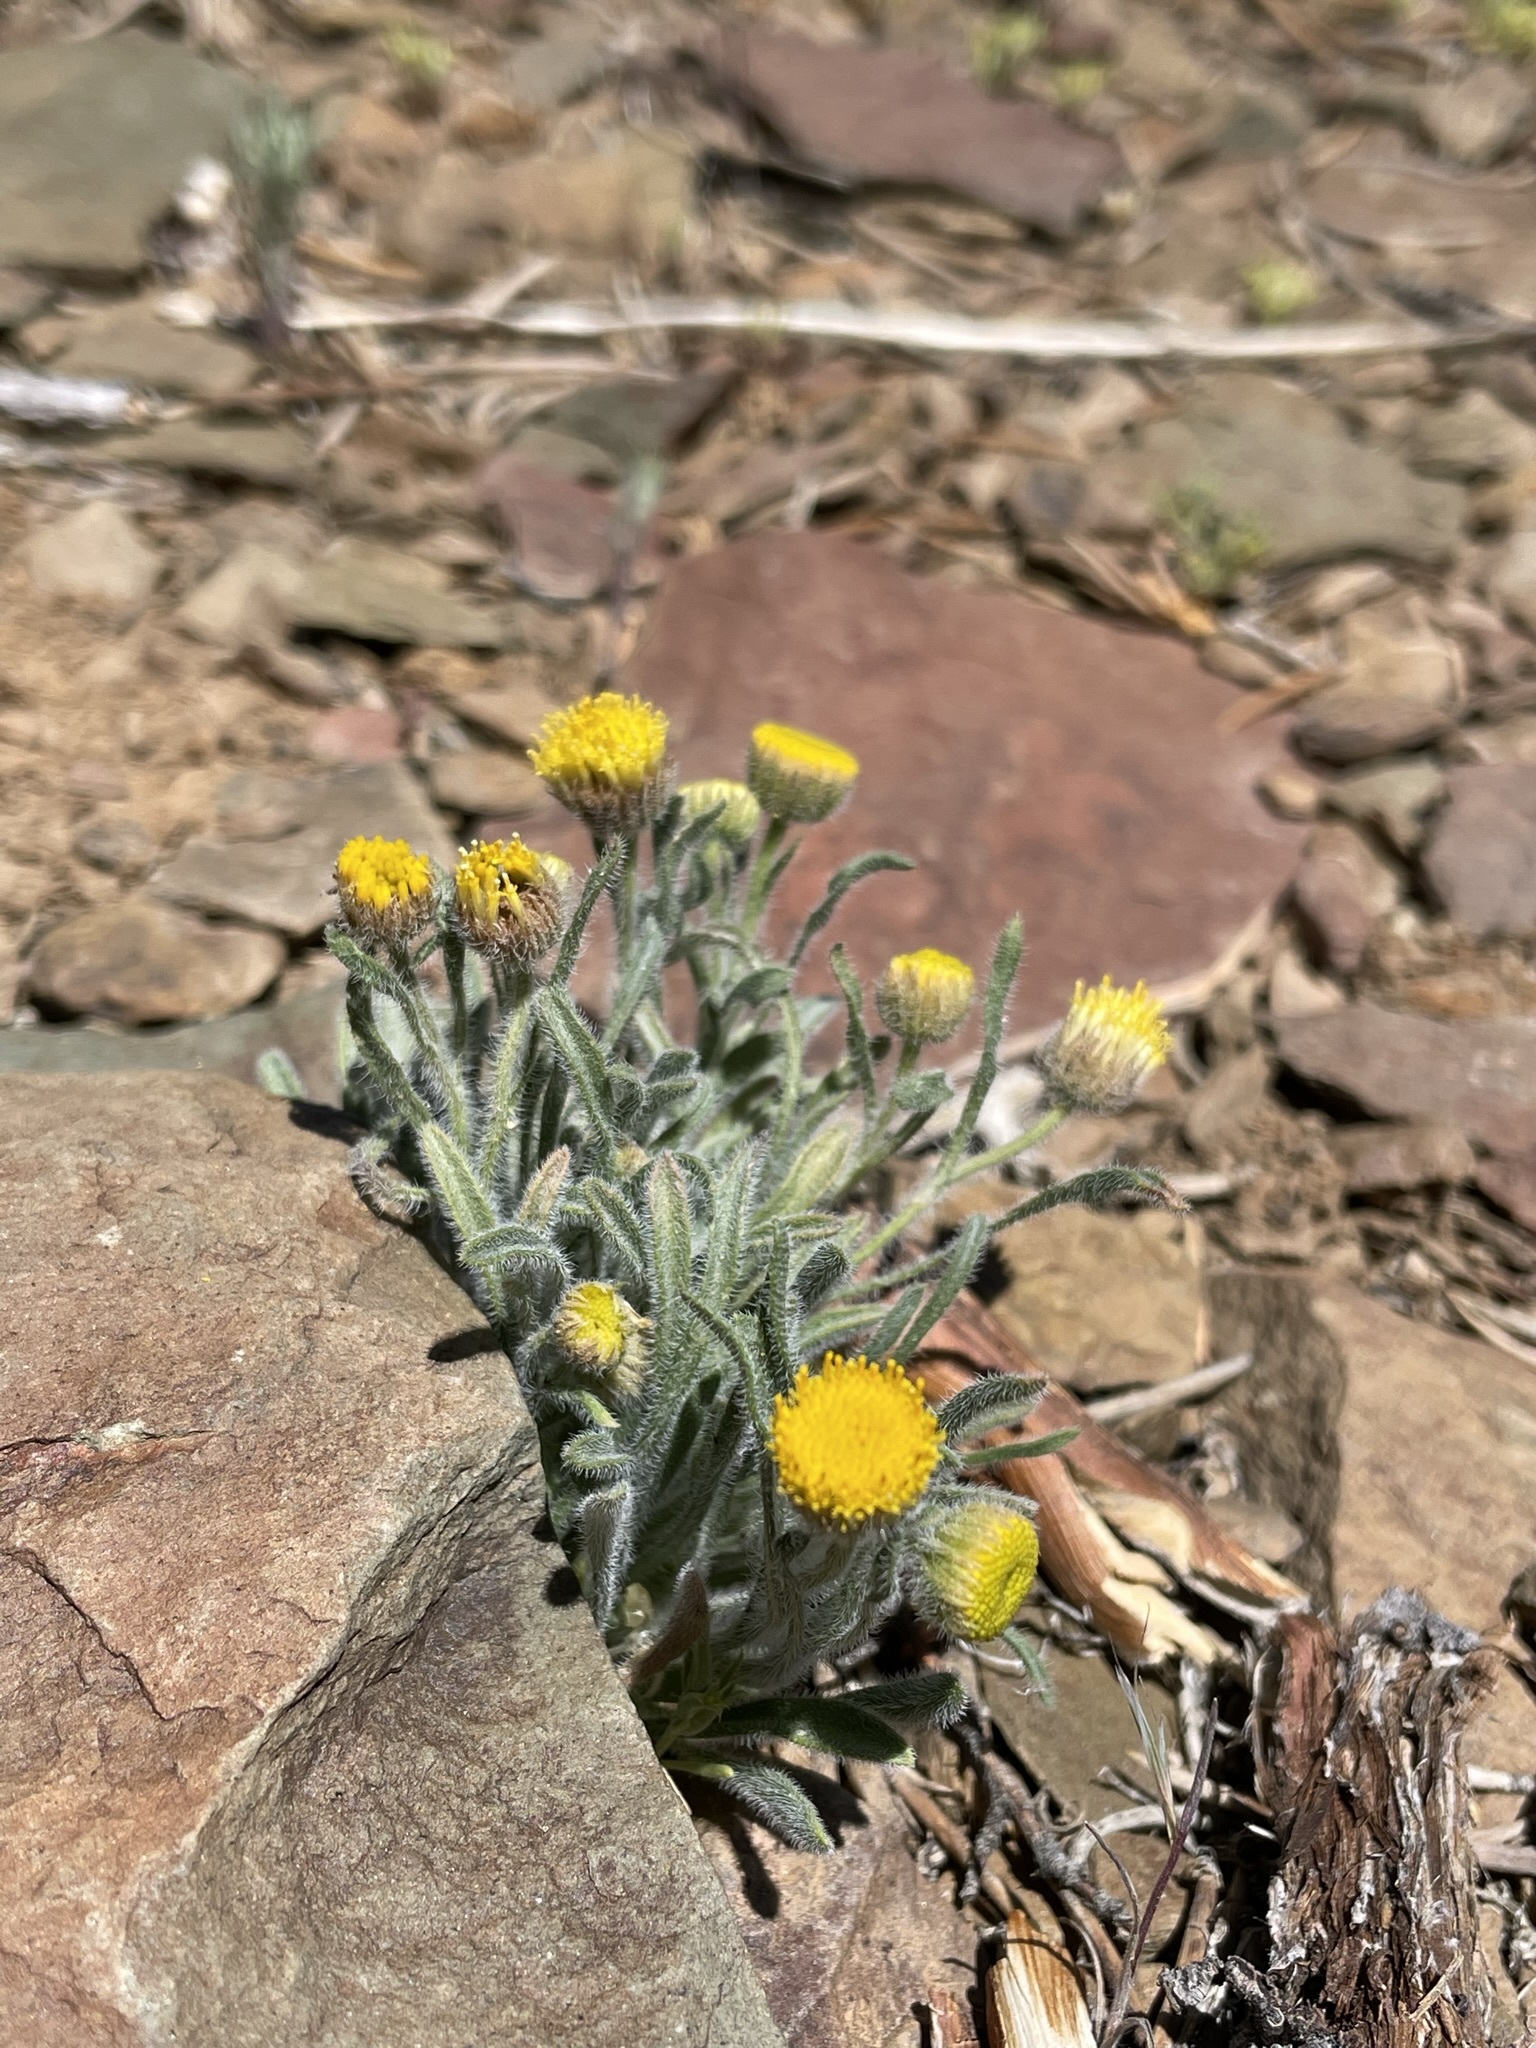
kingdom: Plantae
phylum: Tracheophyta
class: Magnoliopsida
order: Asterales
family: Asteraceae
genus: Erigeron
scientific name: Erigeron aphanactis
